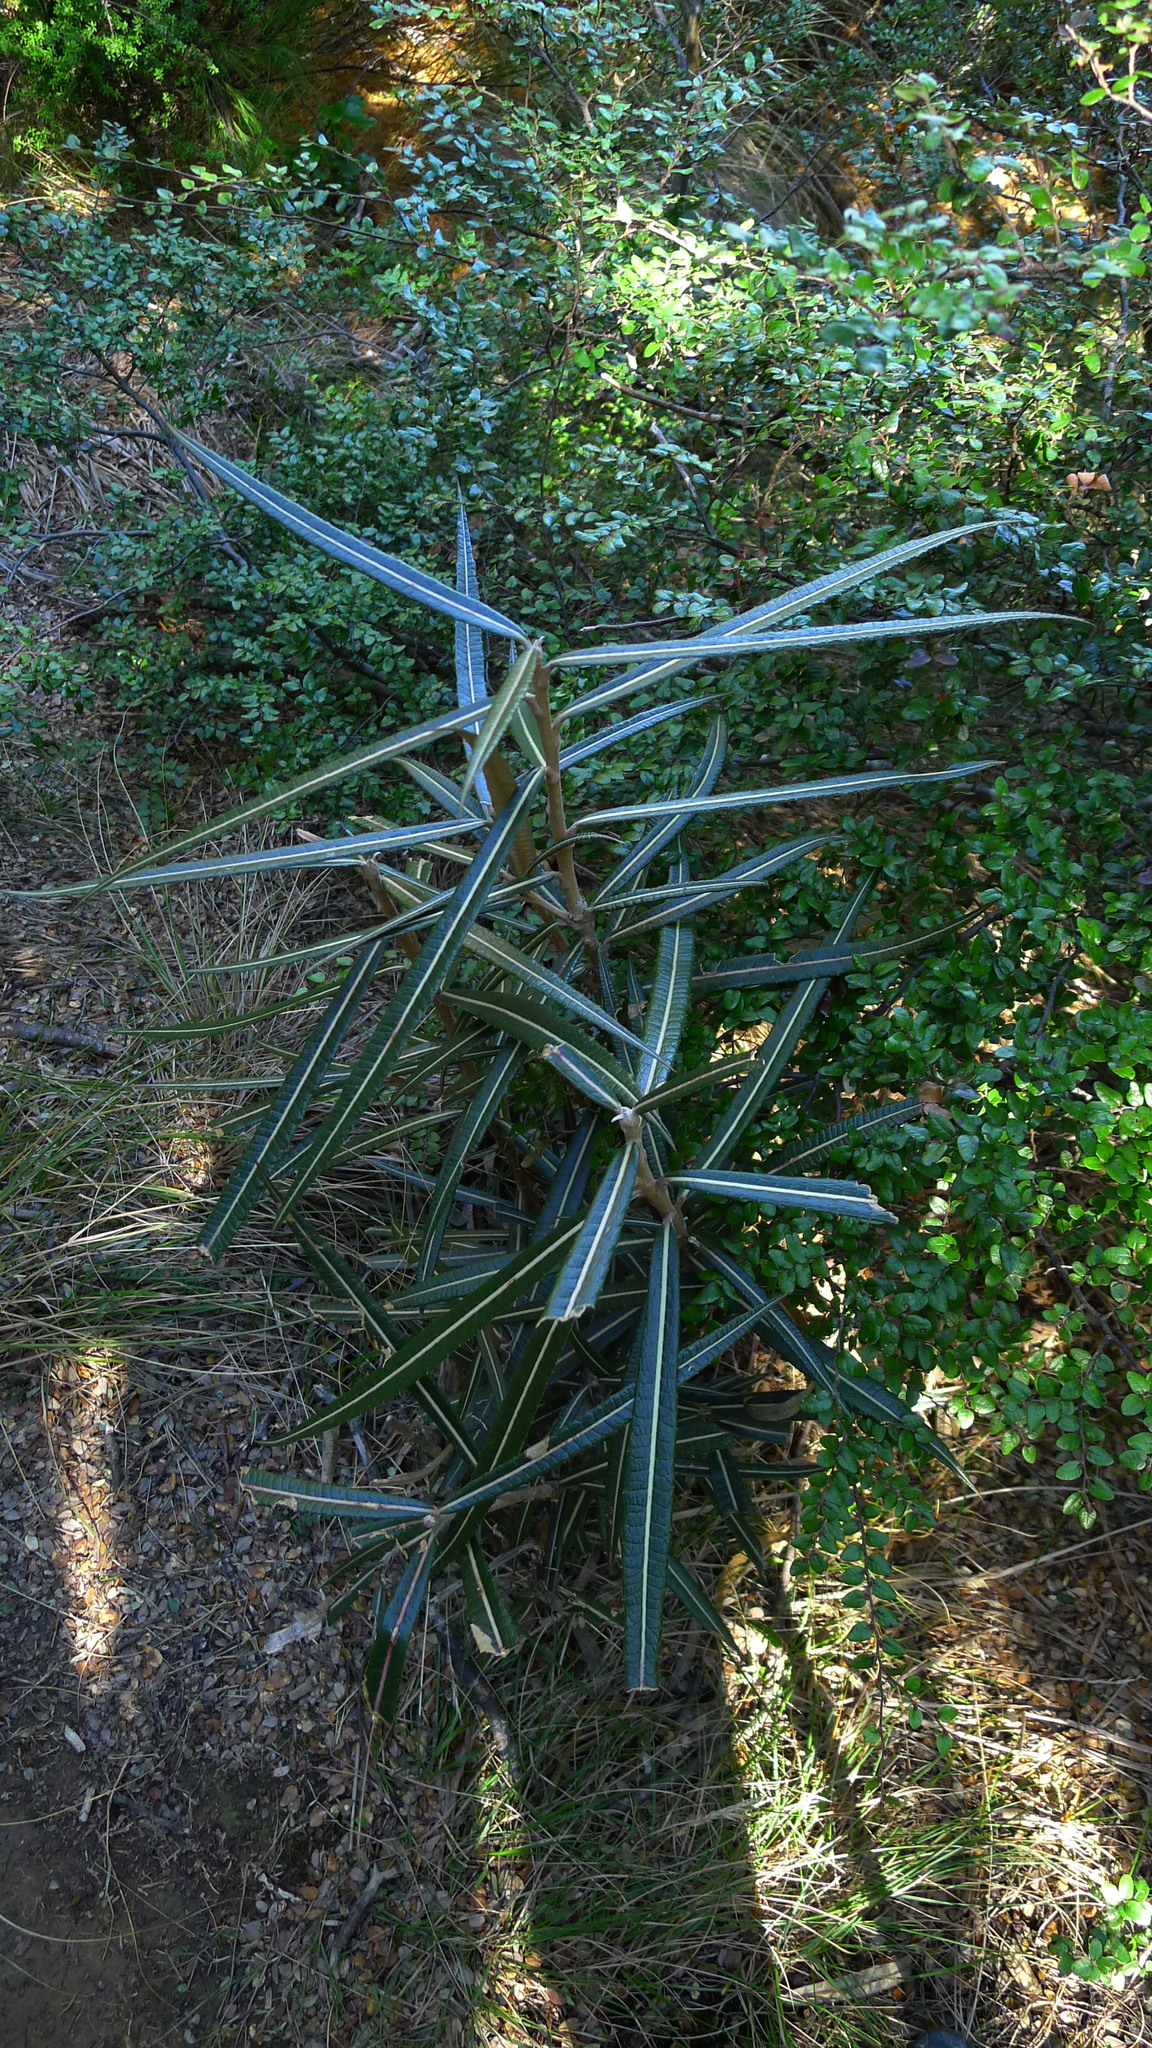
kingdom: Plantae
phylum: Tracheophyta
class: Magnoliopsida
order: Asterales
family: Asteraceae
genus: Olearia
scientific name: Olearia lacunosa
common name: Lancewood tree daisy
